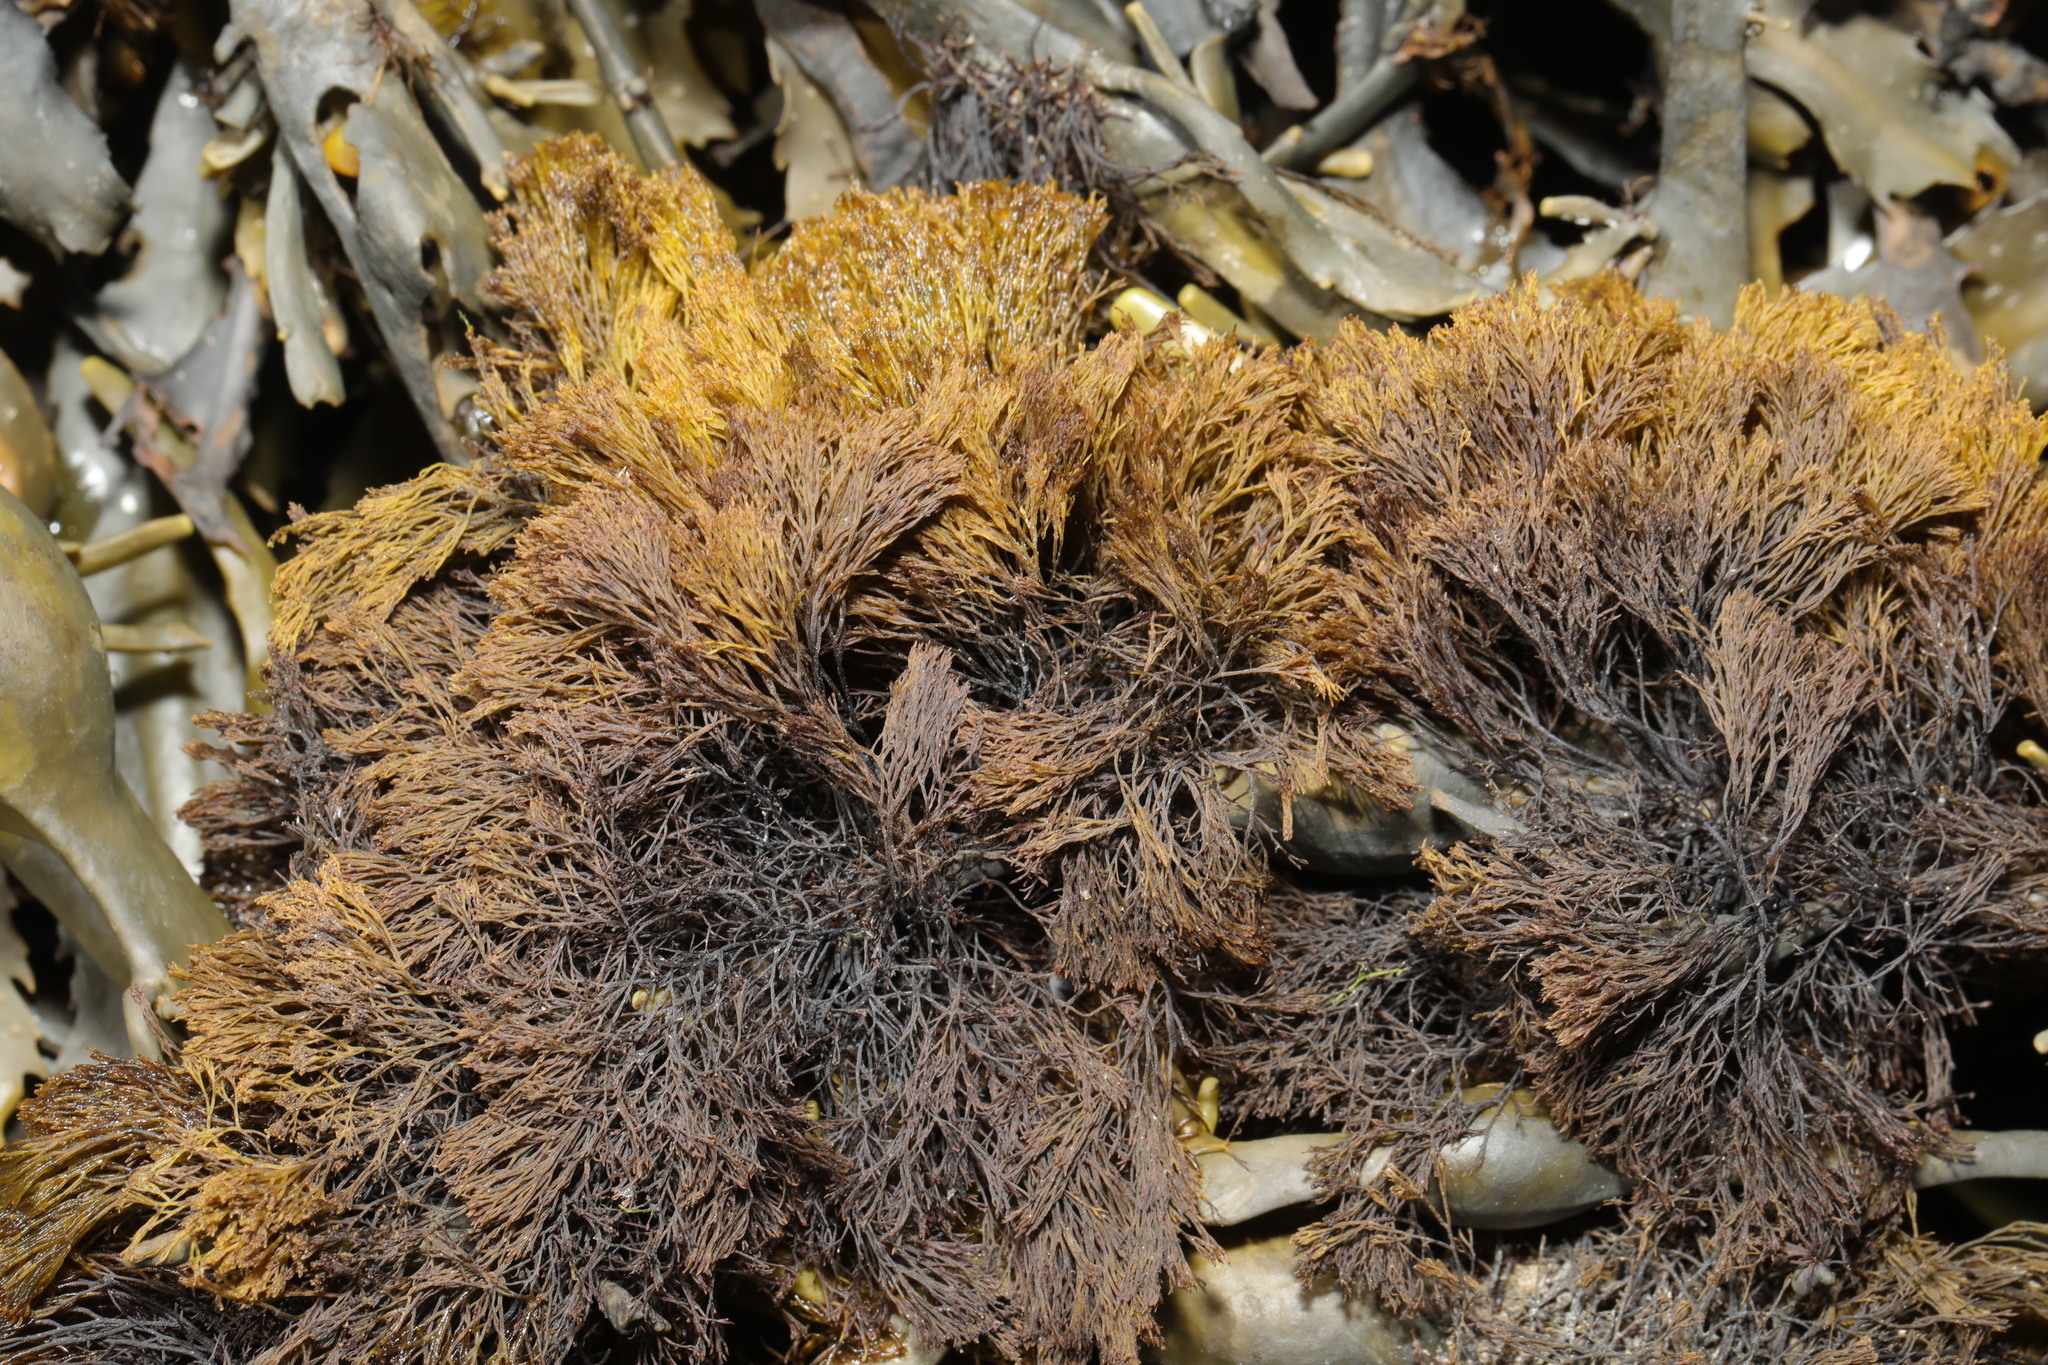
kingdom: Plantae
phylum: Rhodophyta
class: Florideophyceae
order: Ceramiales
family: Rhodomelaceae
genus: Vertebrata
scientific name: Vertebrata lanosa
